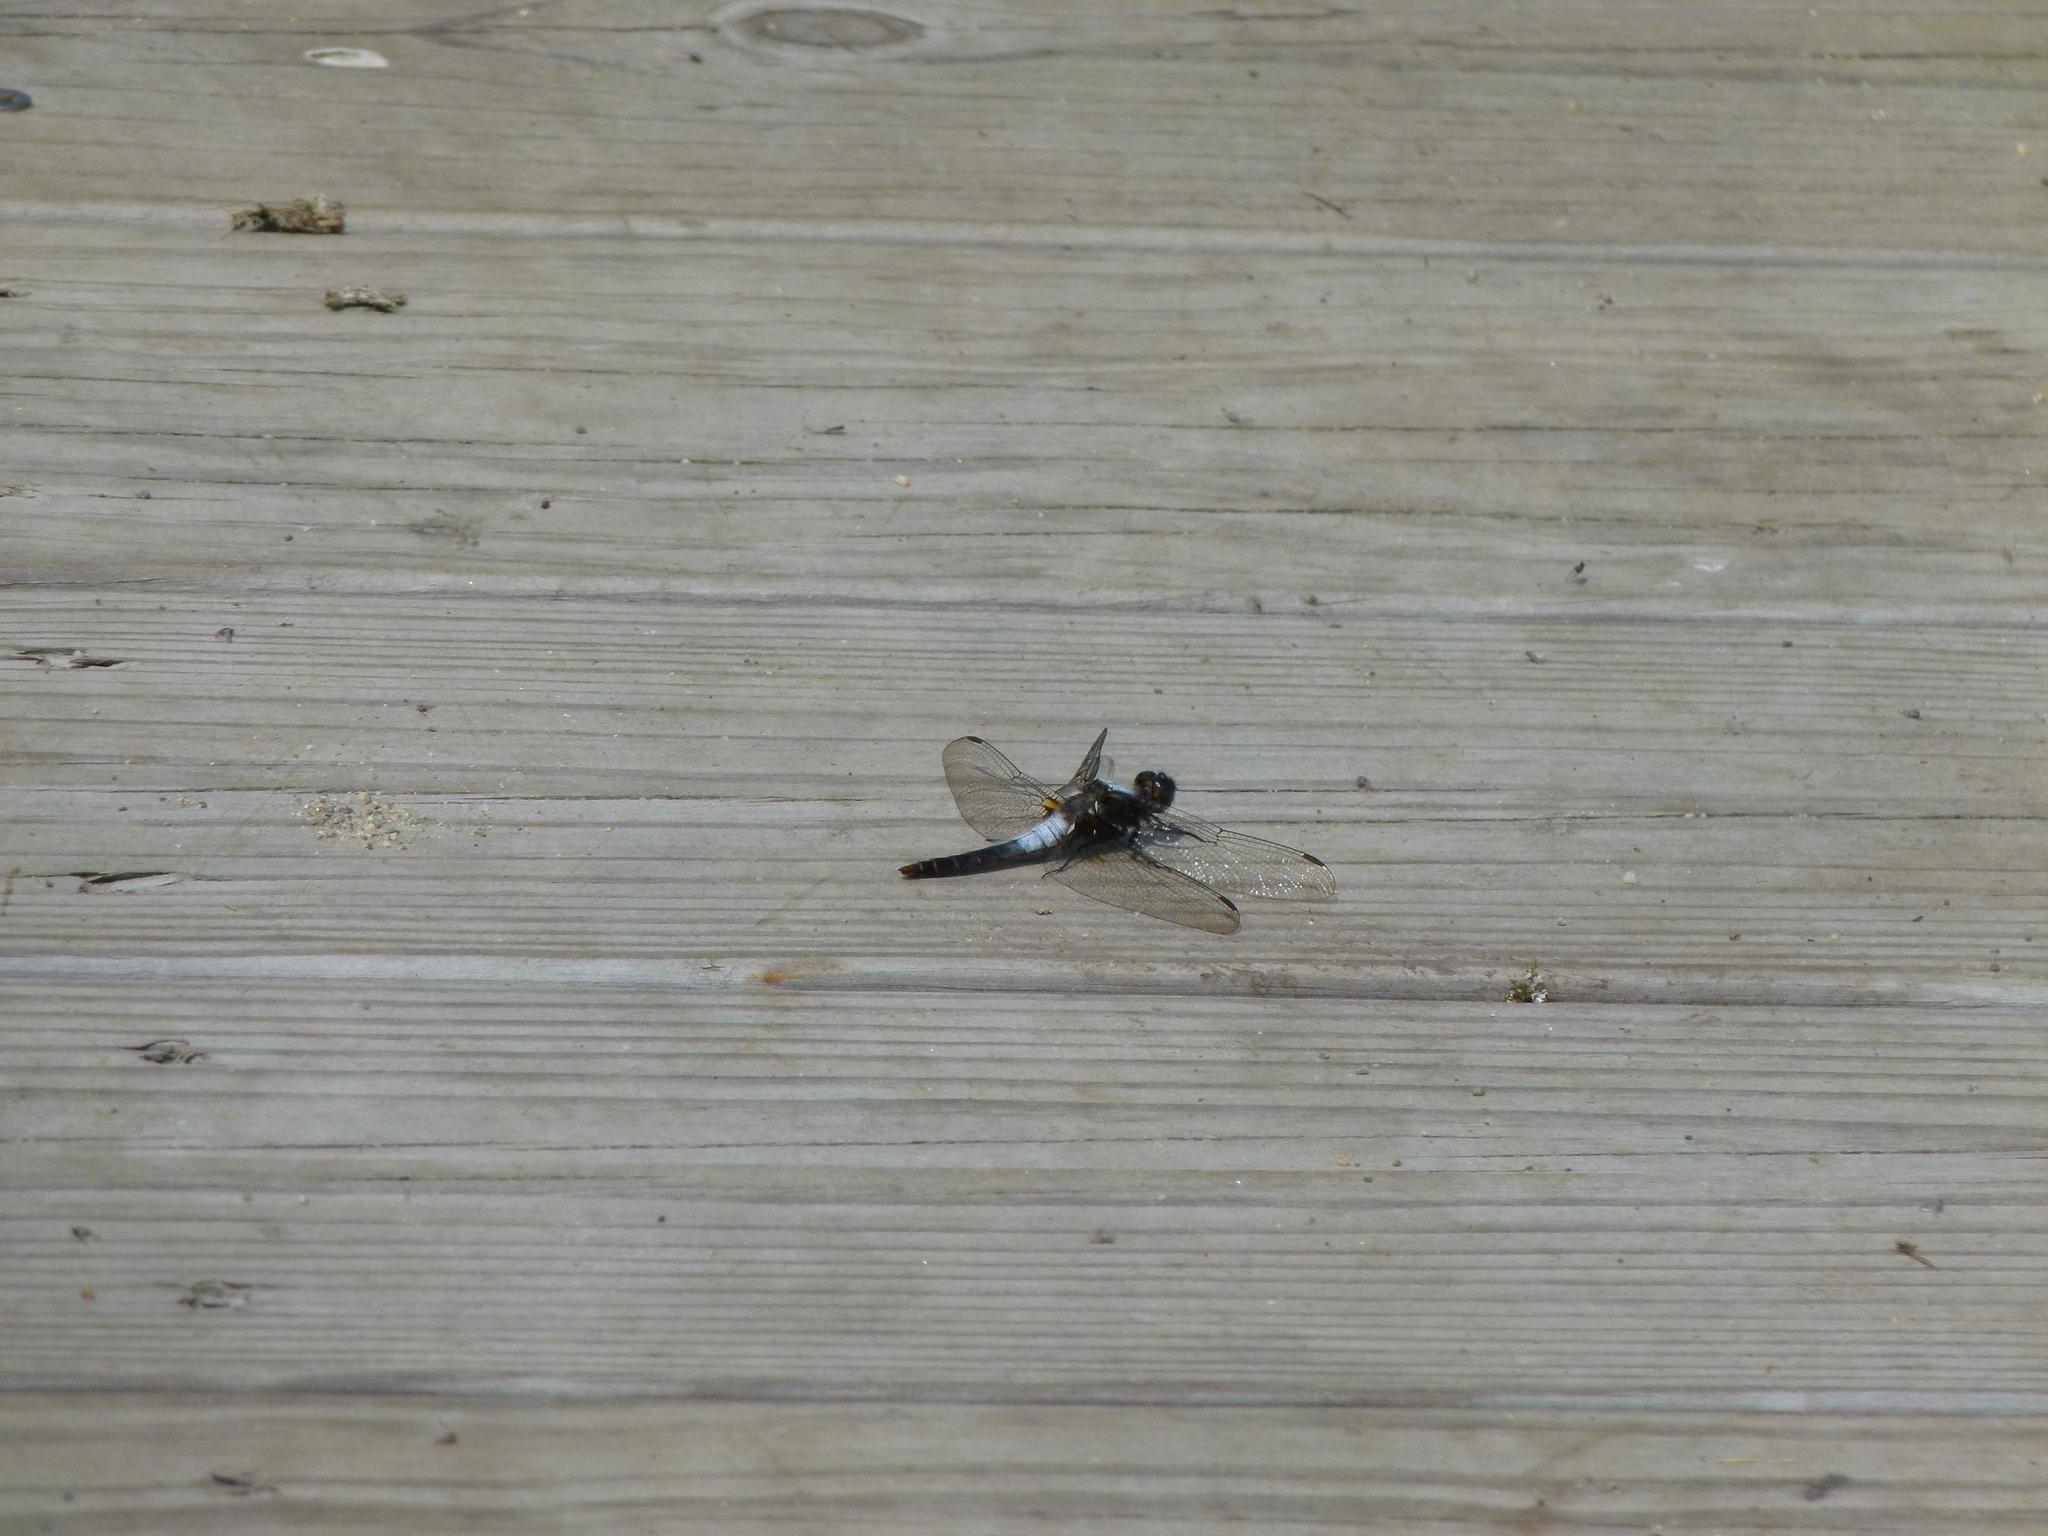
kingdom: Animalia
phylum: Arthropoda
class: Insecta
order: Odonata
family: Libellulidae
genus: Ladona
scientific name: Ladona julia
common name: Chalk-fronted corporal
